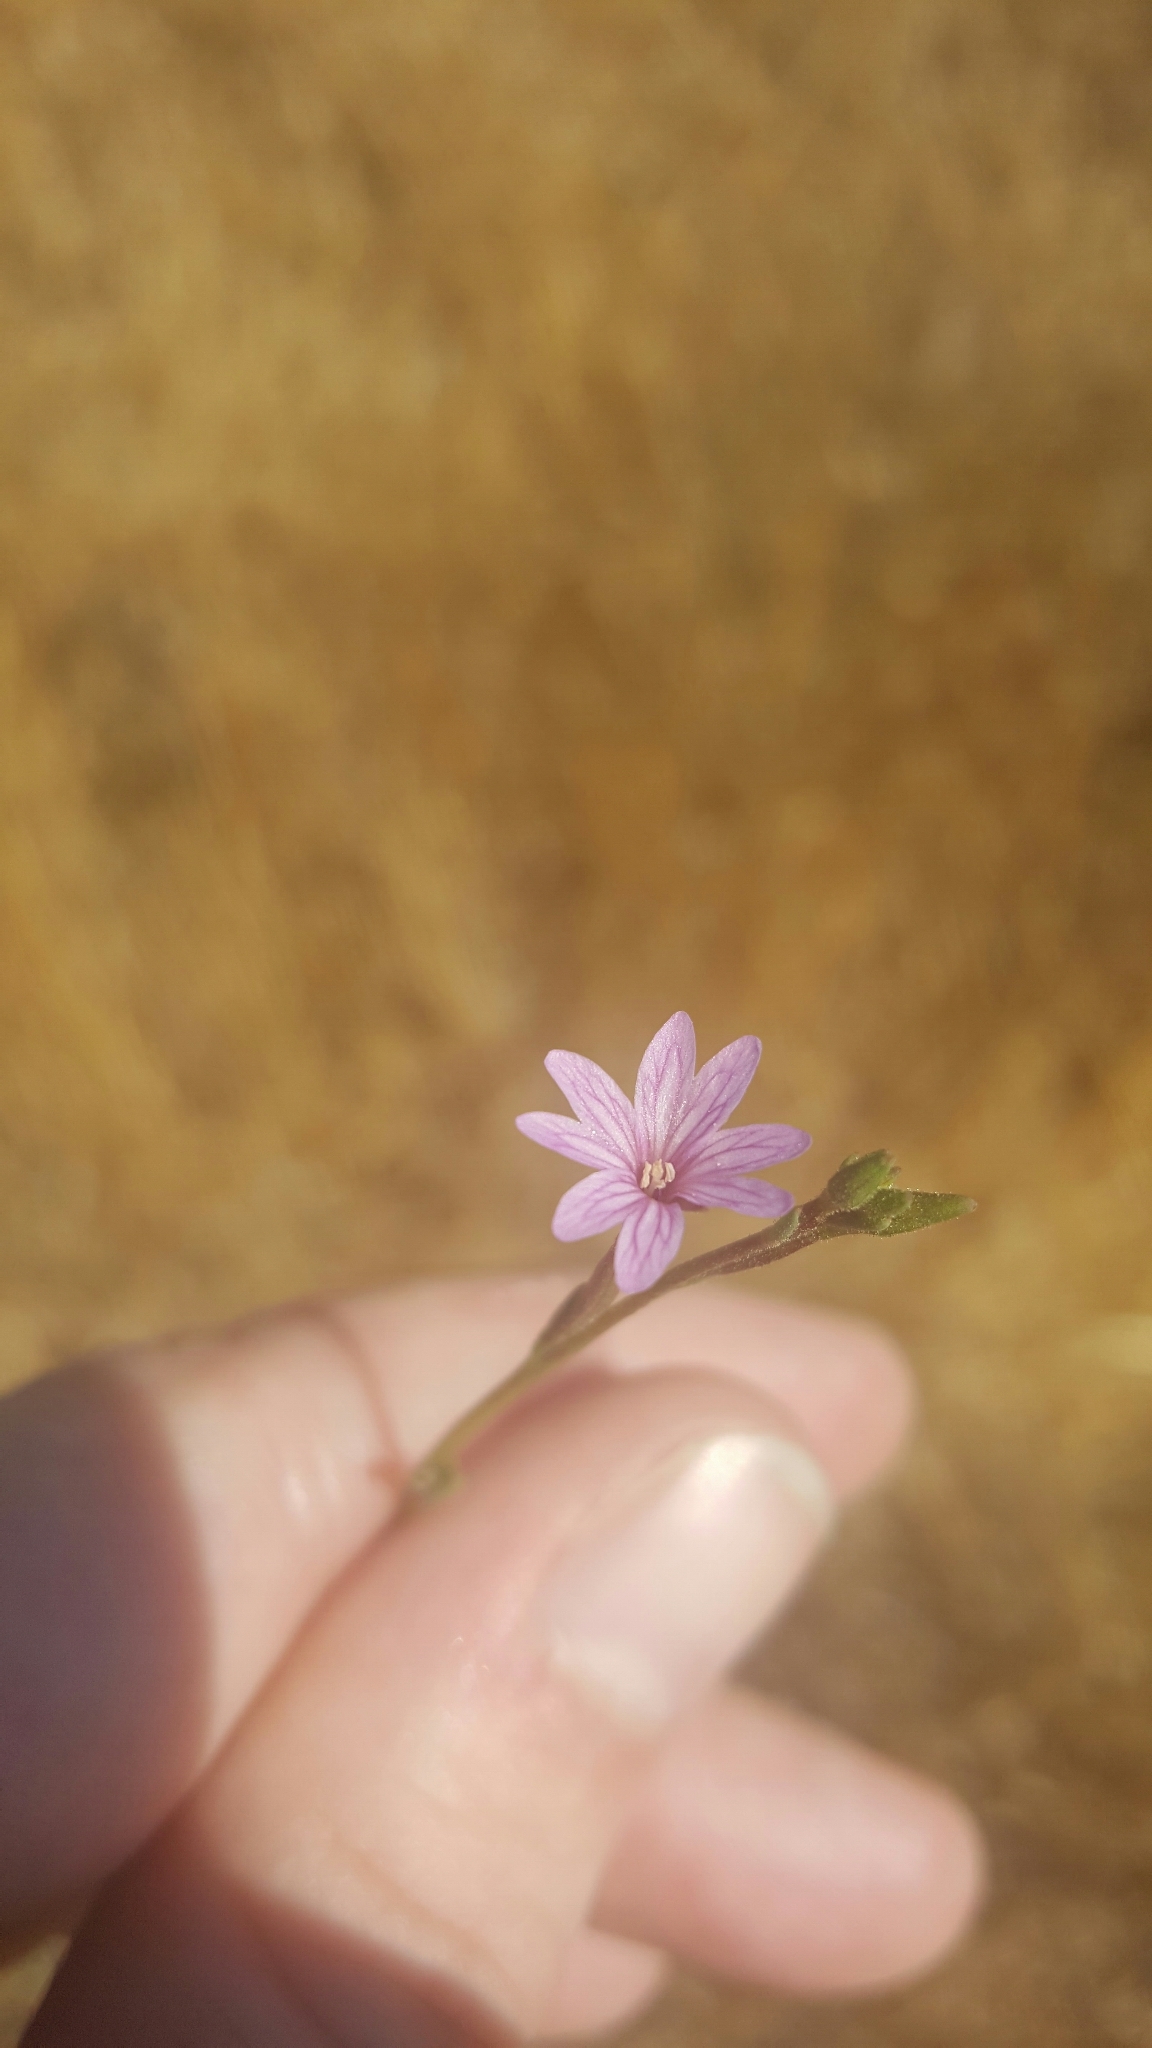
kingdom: Plantae
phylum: Tracheophyta
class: Magnoliopsida
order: Myrtales
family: Onagraceae
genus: Epilobium
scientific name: Epilobium brachycarpum
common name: Annual willowherb
